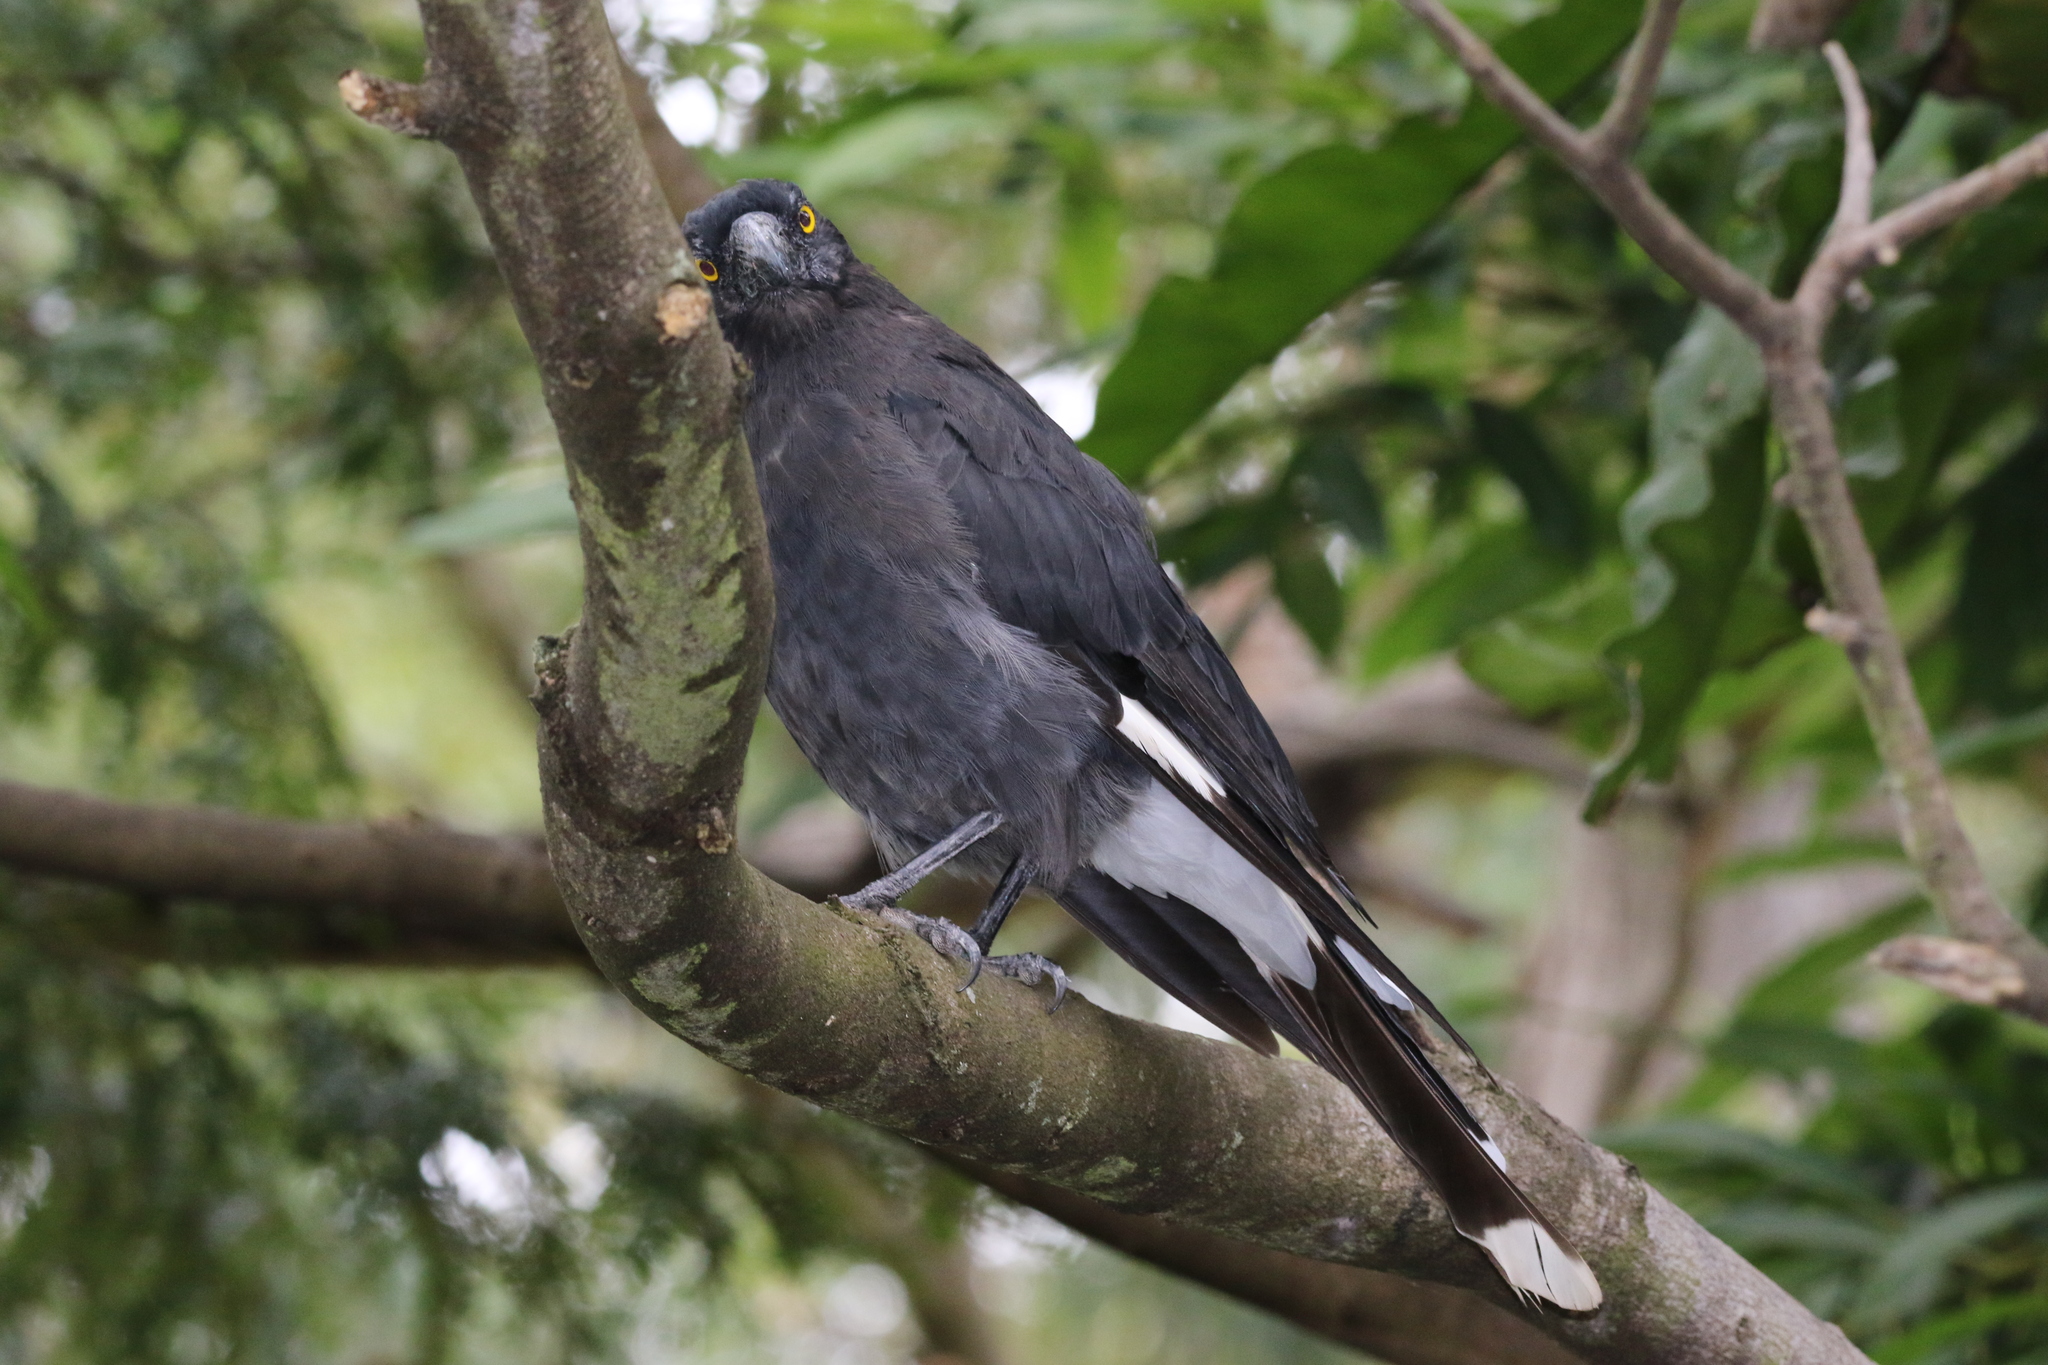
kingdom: Animalia
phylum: Chordata
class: Aves
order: Passeriformes
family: Cracticidae
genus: Strepera
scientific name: Strepera graculina
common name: Pied currawong
